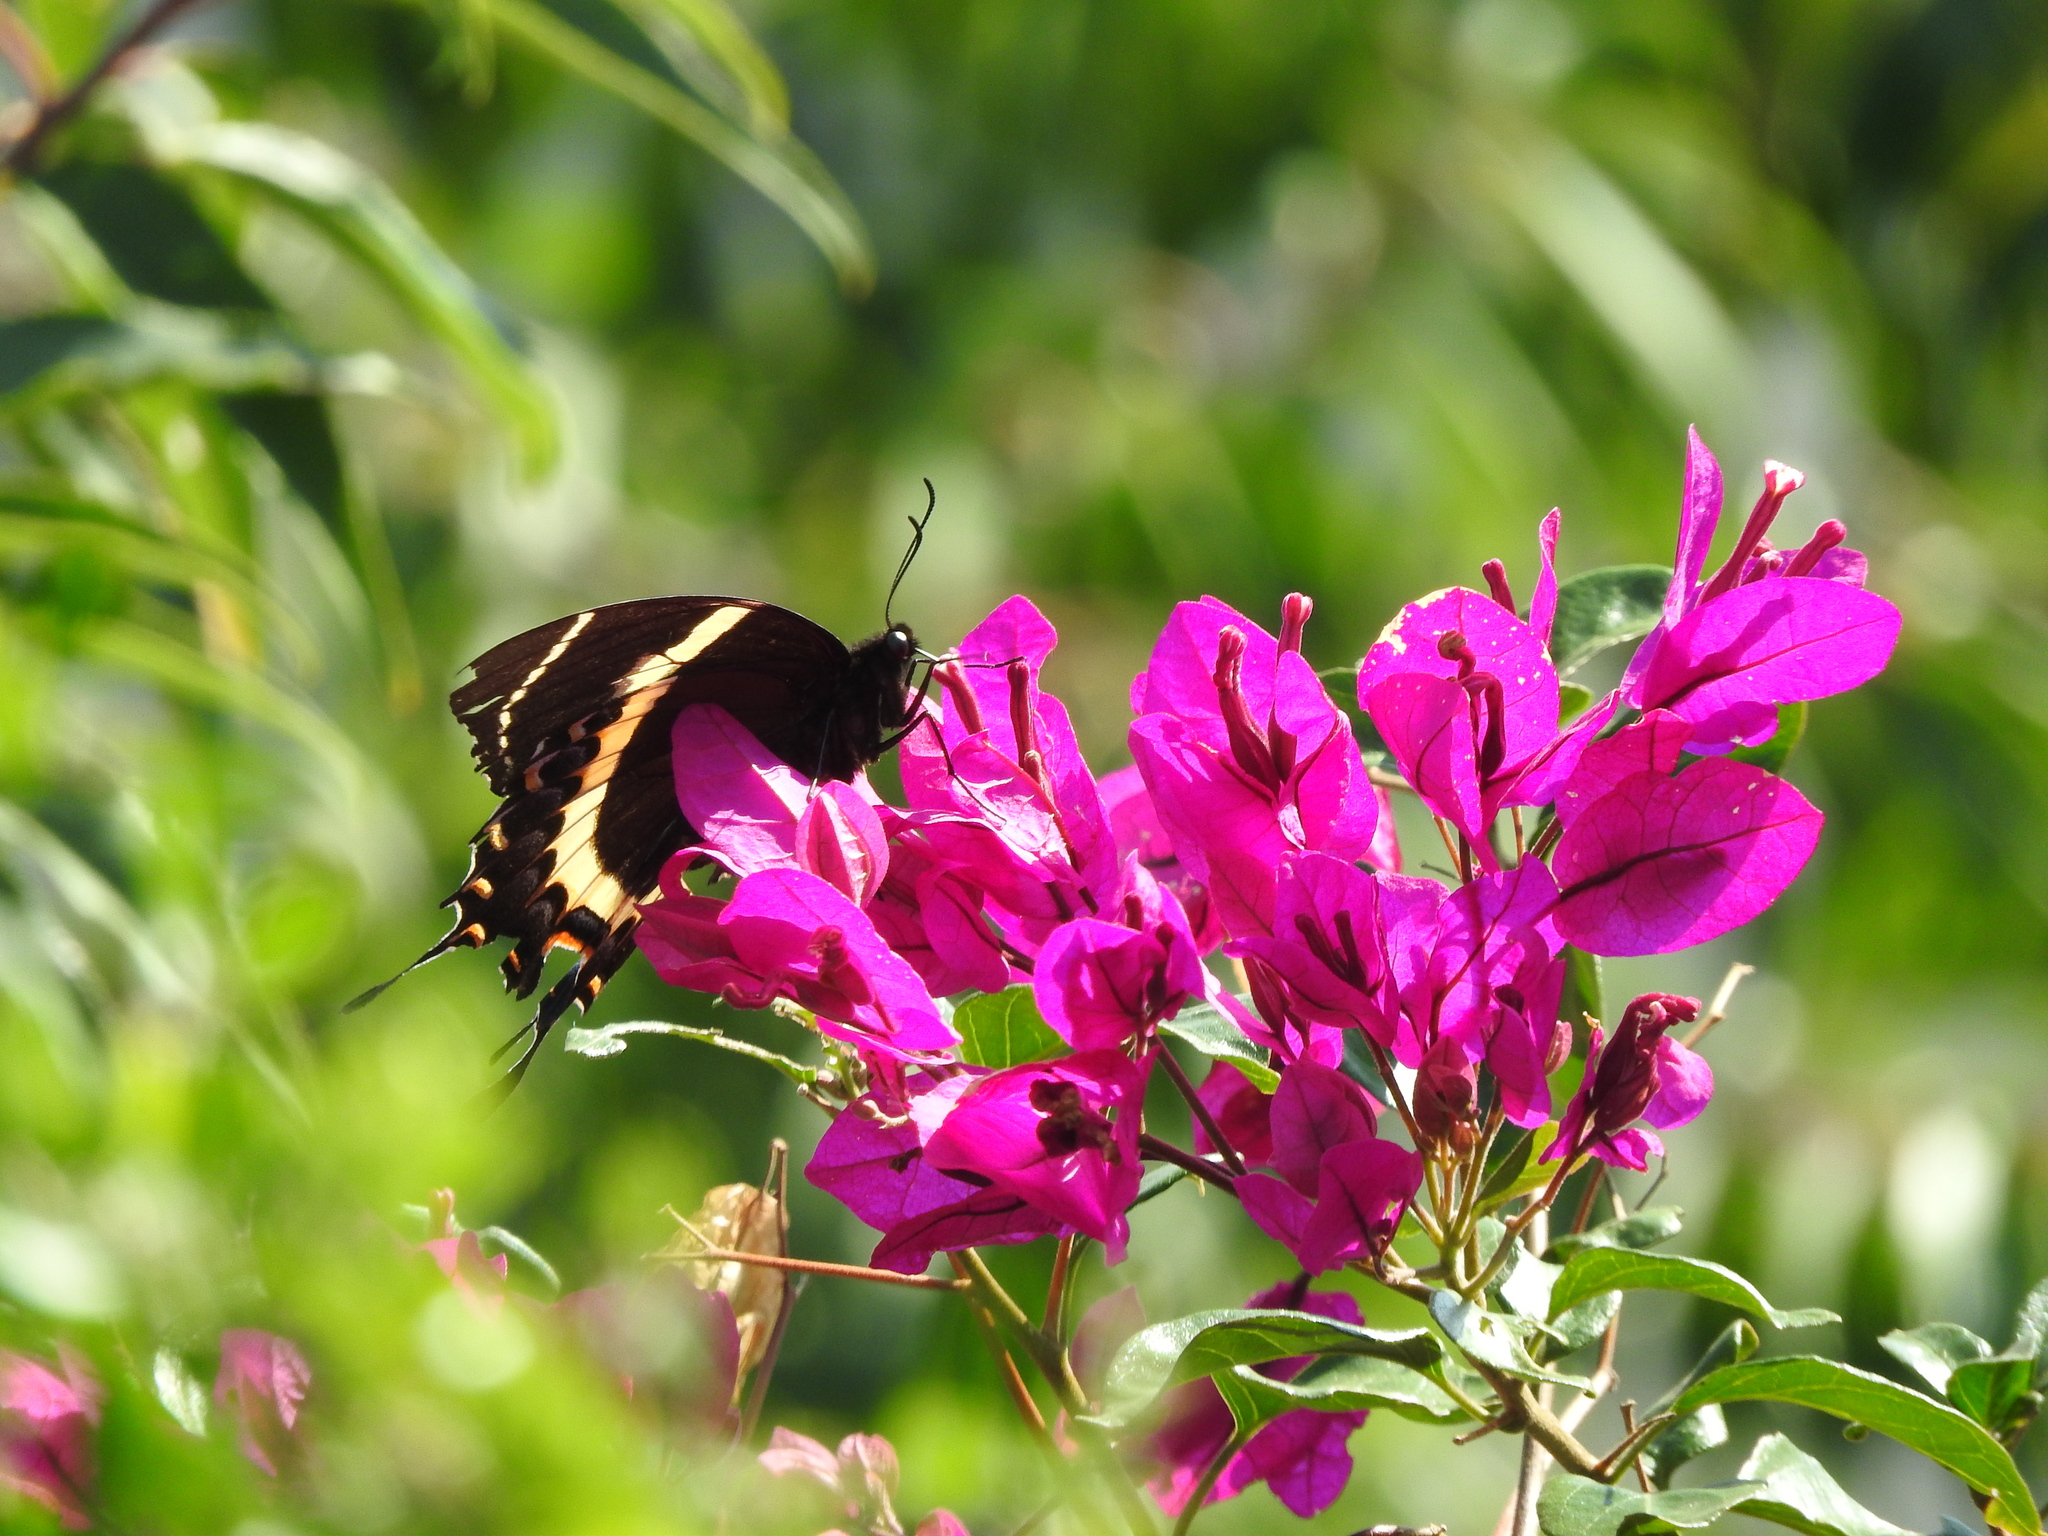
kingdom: Animalia
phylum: Arthropoda
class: Insecta
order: Lepidoptera
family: Papilionidae
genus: Papilio
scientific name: Papilio garamas
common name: Magnificent swallowtail
